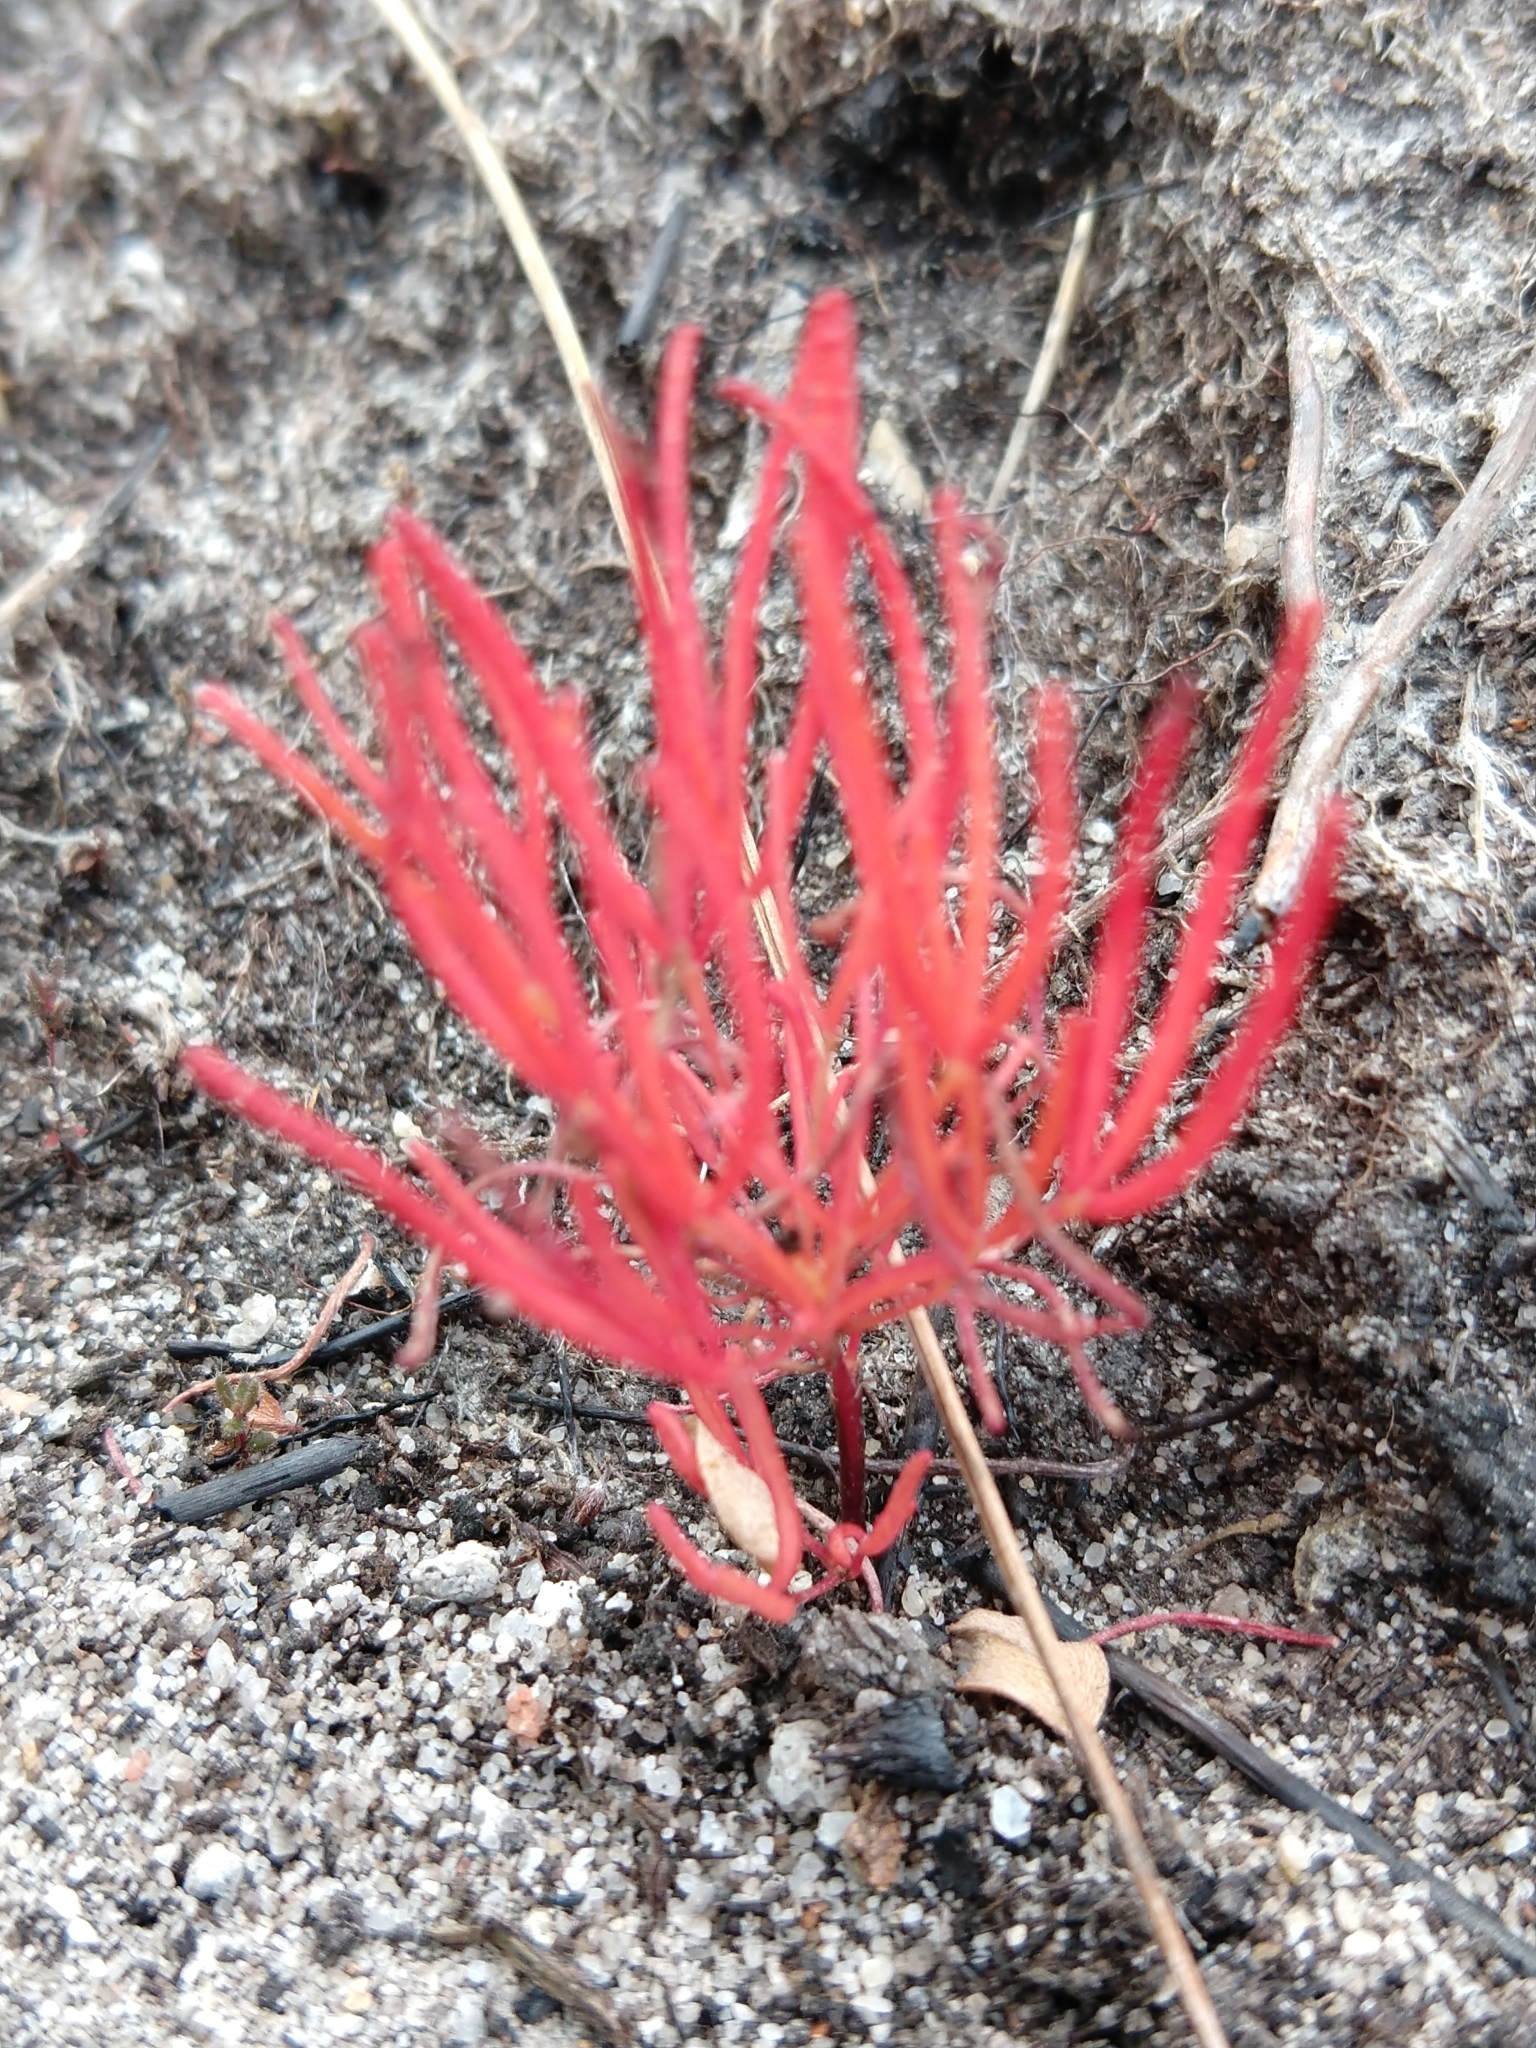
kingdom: Plantae
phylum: Tracheophyta
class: Magnoliopsida
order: Oxalidales
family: Oxalidaceae
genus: Oxalis
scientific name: Oxalis polyphylla
